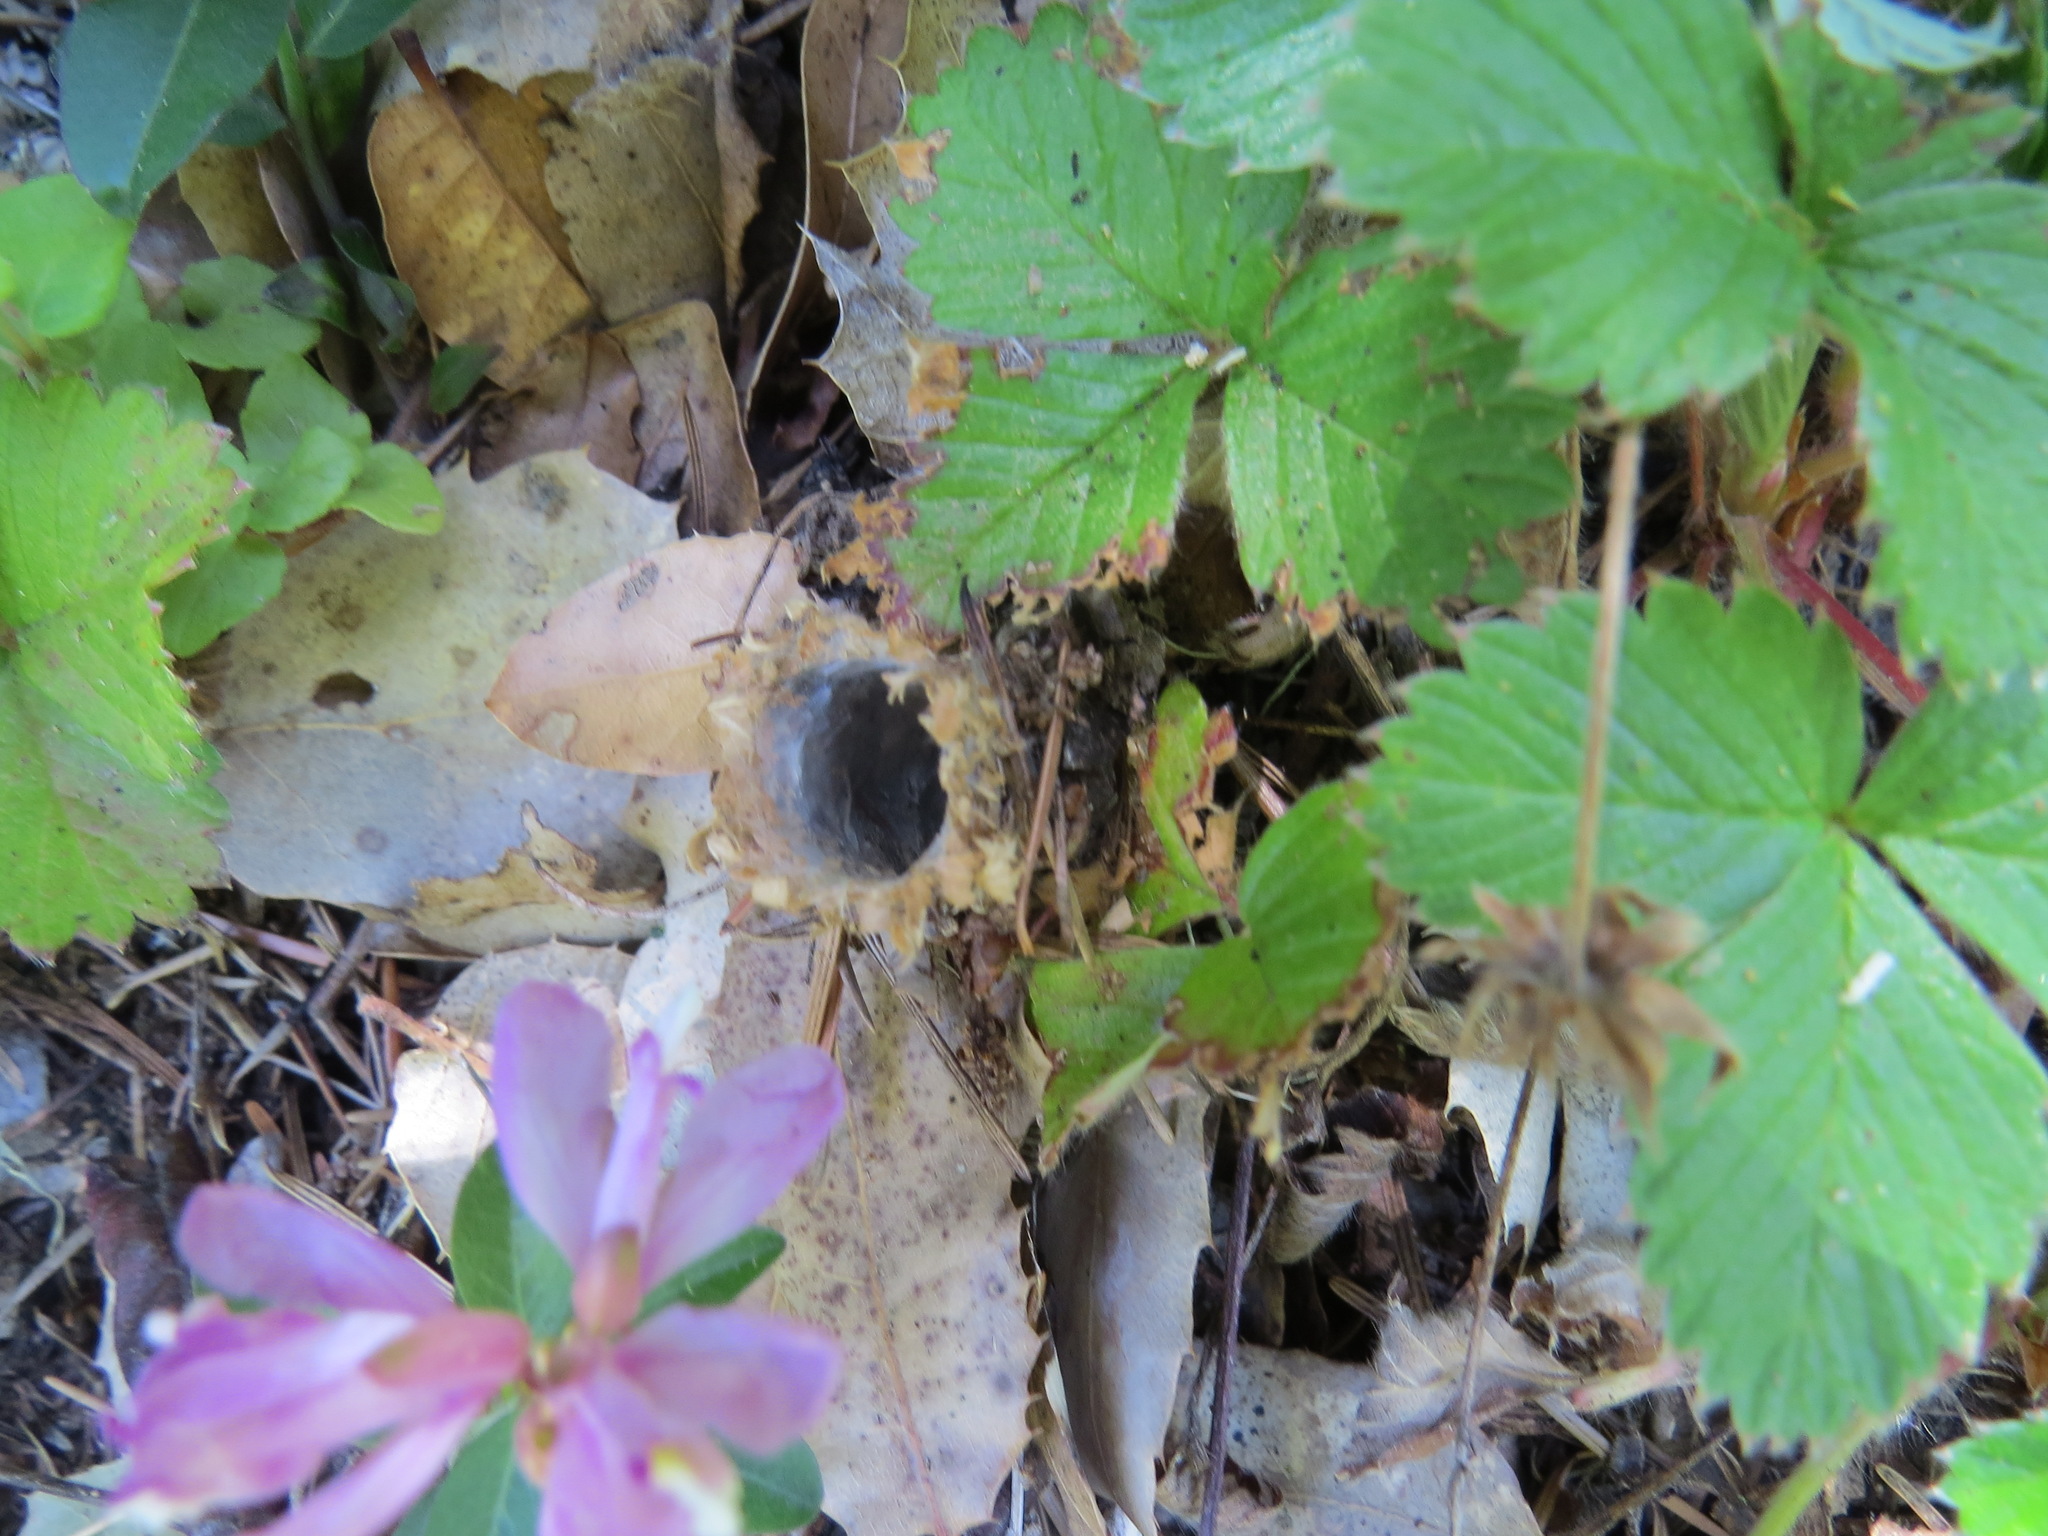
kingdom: Animalia
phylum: Arthropoda
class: Arachnida
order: Araneae
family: Antrodiaetidae
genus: Atypoides
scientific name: Atypoides riversi
